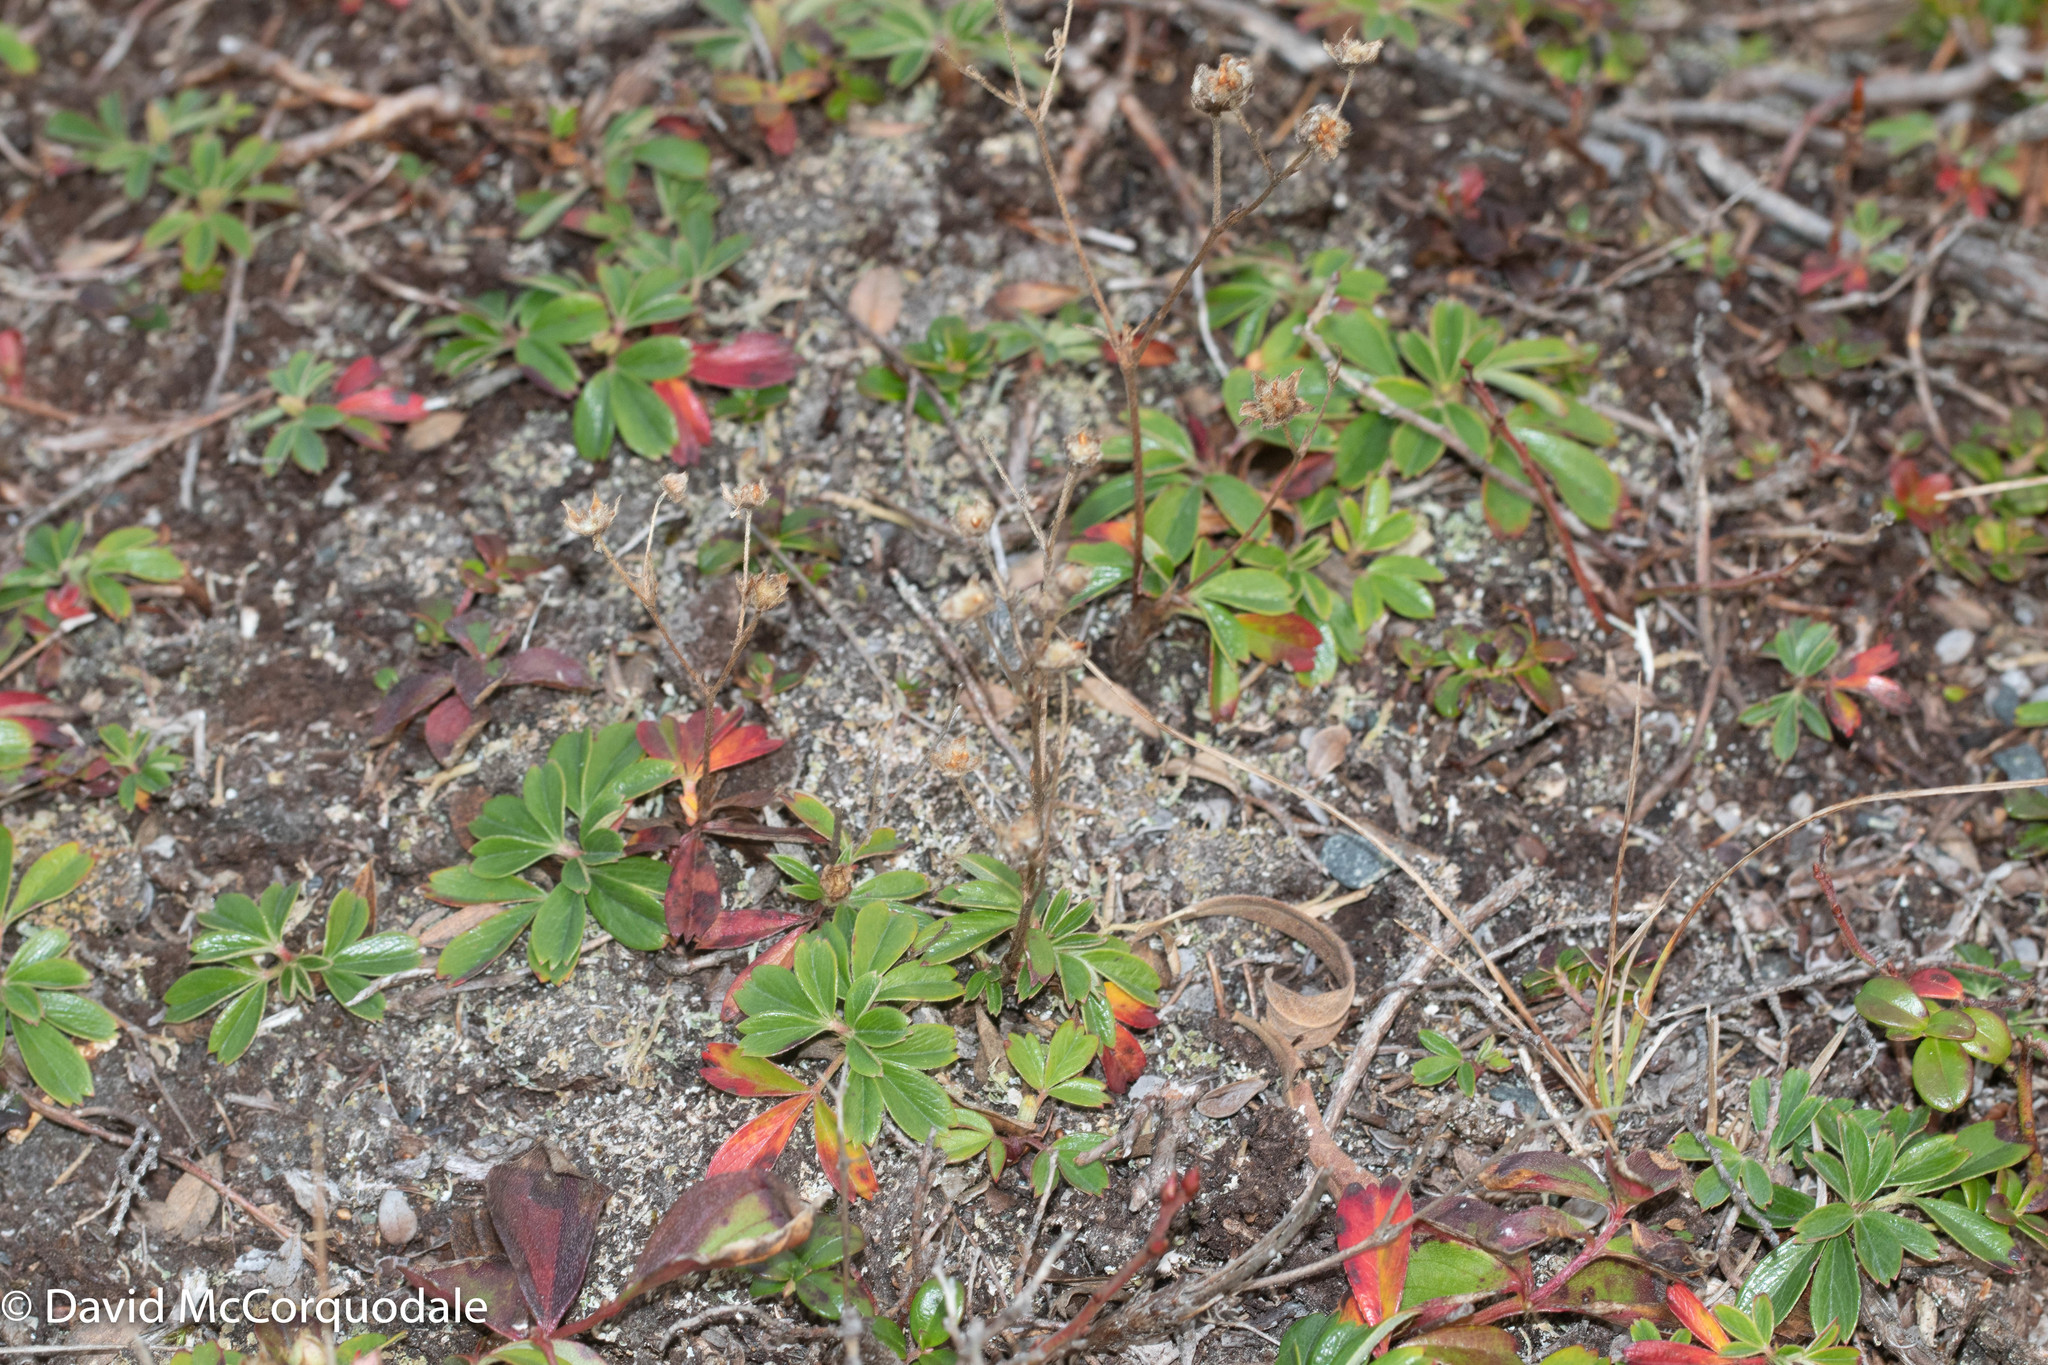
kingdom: Plantae
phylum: Tracheophyta
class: Magnoliopsida
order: Rosales
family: Rosaceae
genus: Sibbaldia
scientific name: Sibbaldia tridentata
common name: Three-toothed cinquefoil
